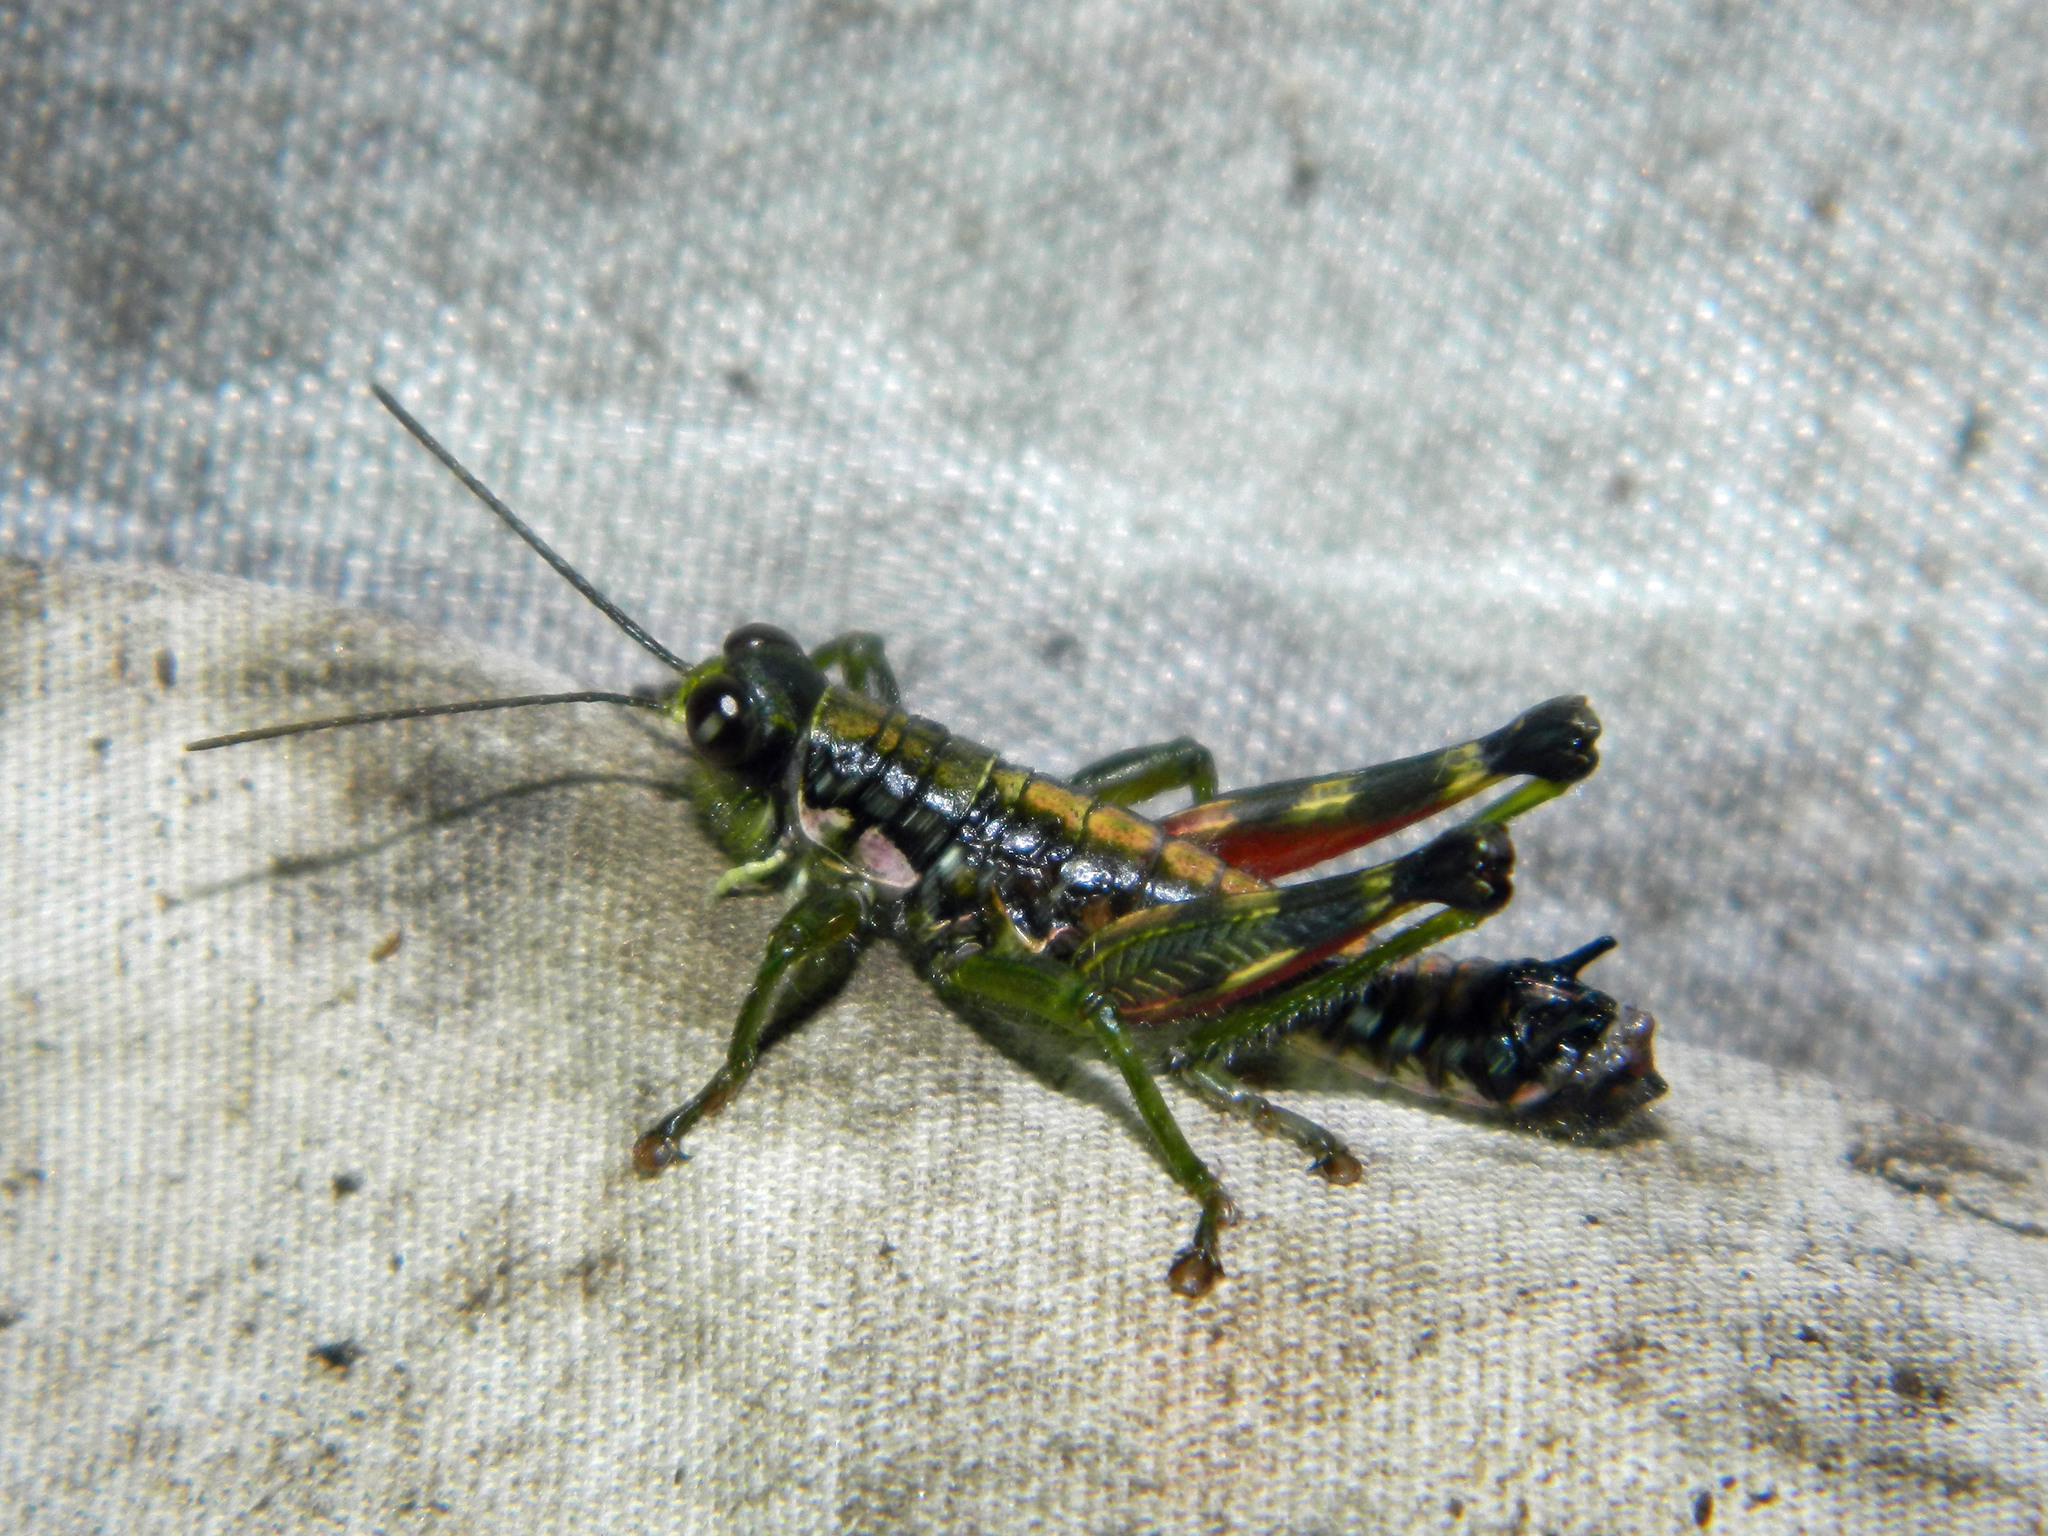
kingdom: Animalia
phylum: Arthropoda
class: Insecta
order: Orthoptera
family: Acrididae
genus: Booneacris
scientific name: Booneacris glacialis
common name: Wingless mountain grasshopper
